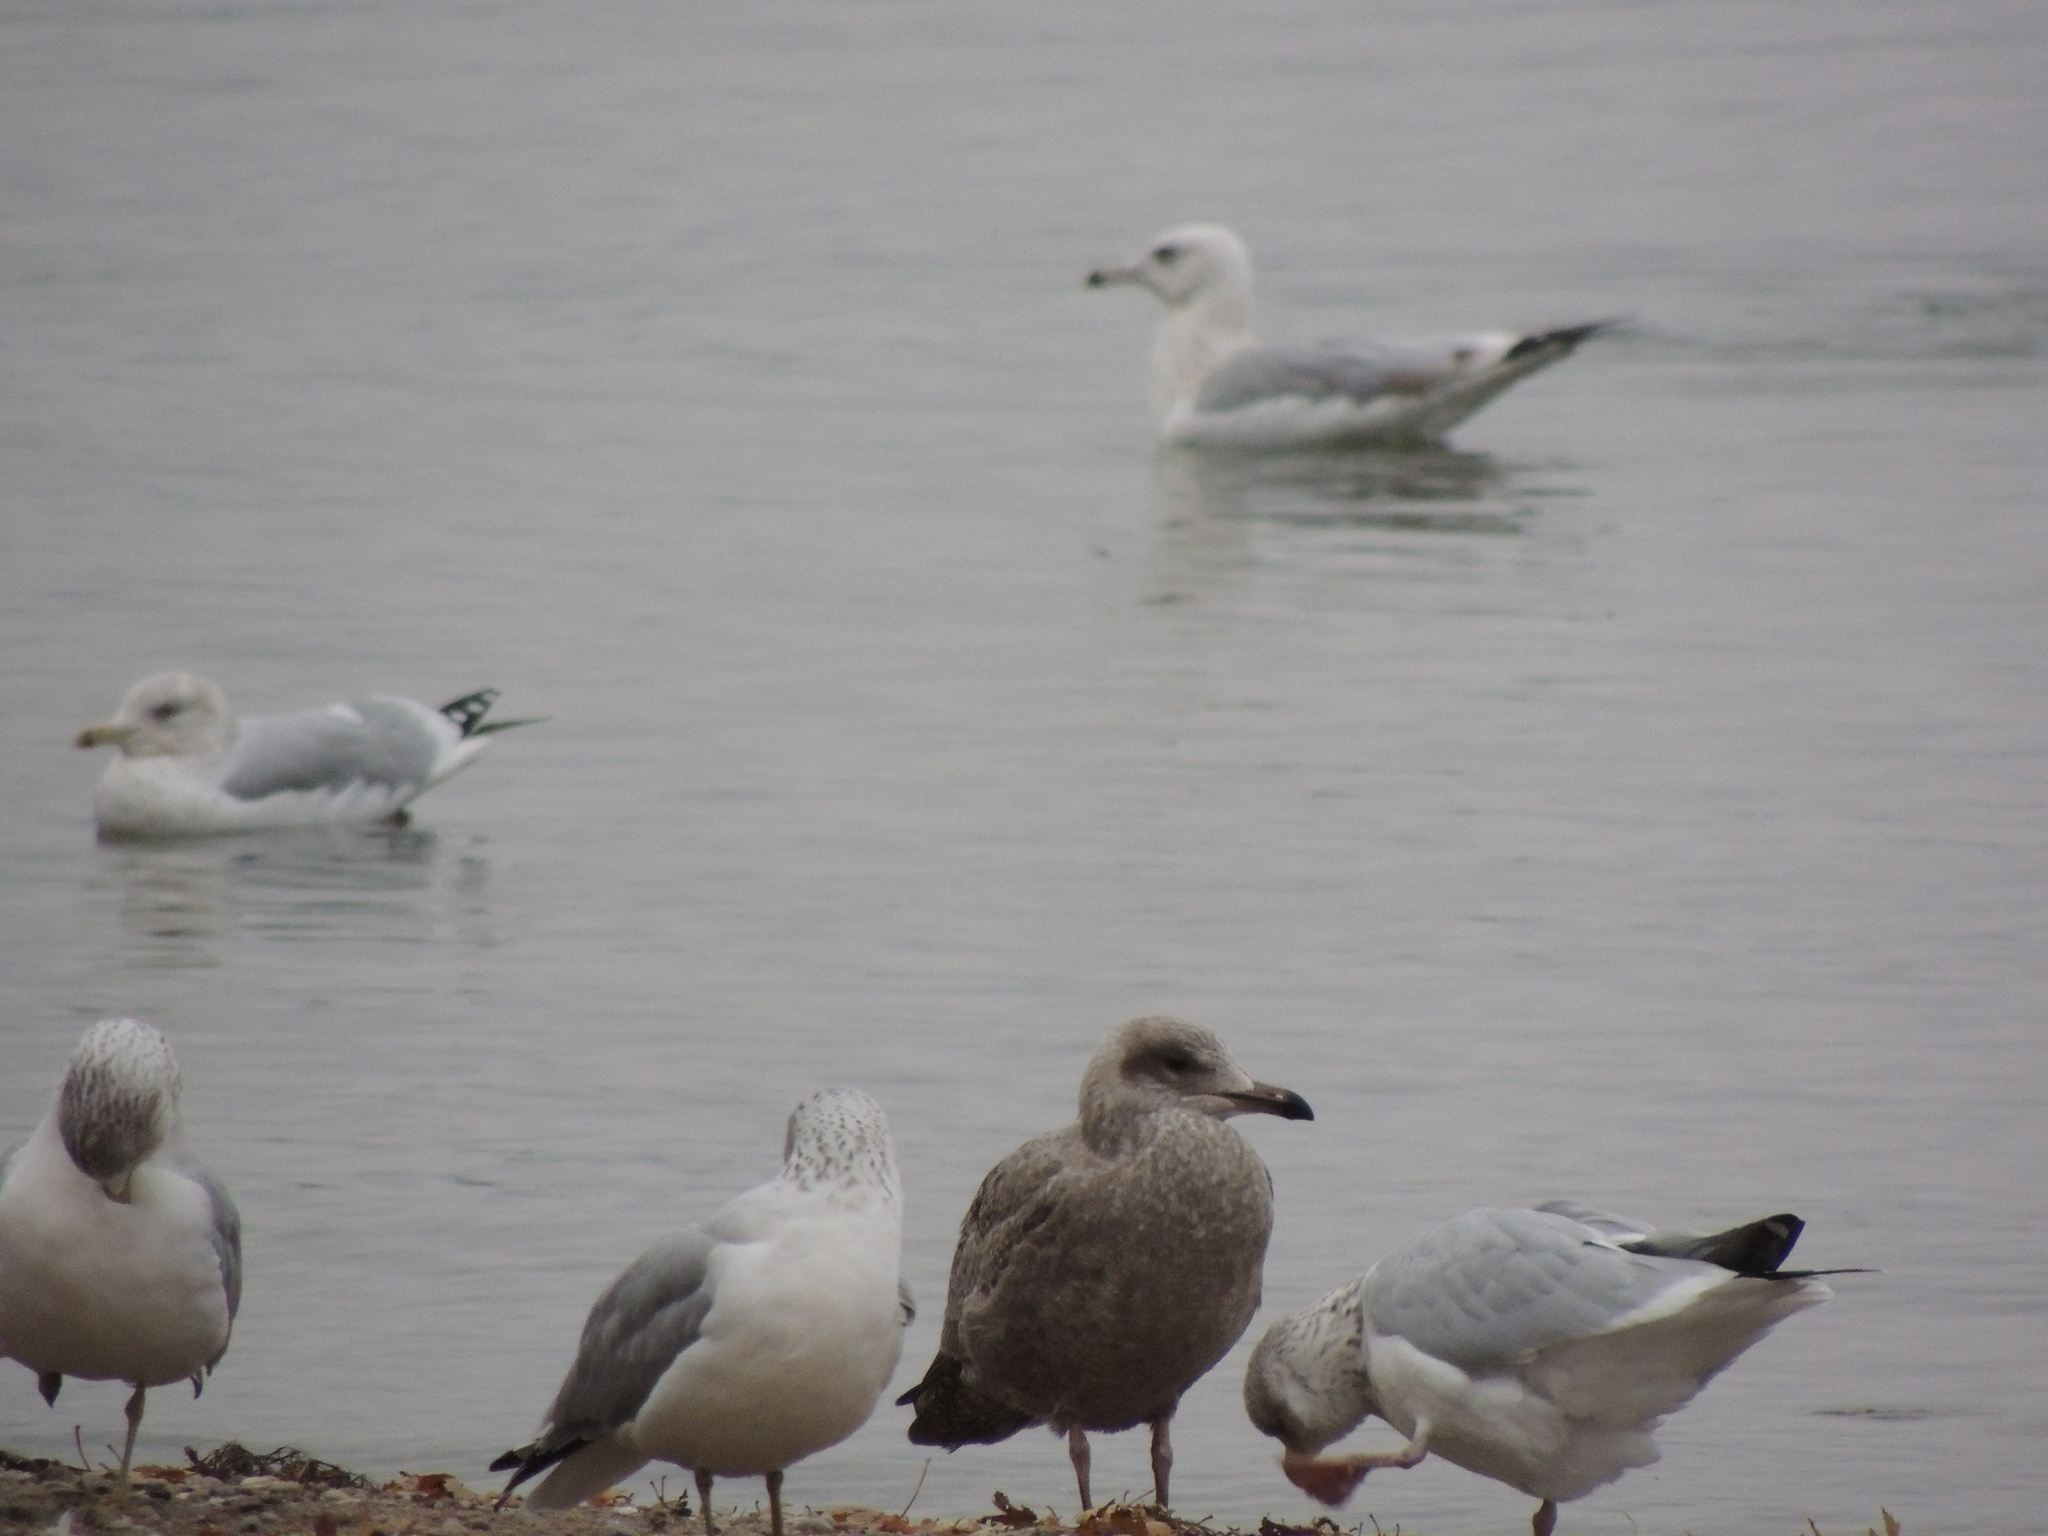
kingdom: Animalia
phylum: Chordata
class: Aves
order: Charadriiformes
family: Laridae
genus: Larus
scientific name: Larus argentatus
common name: Herring gull
